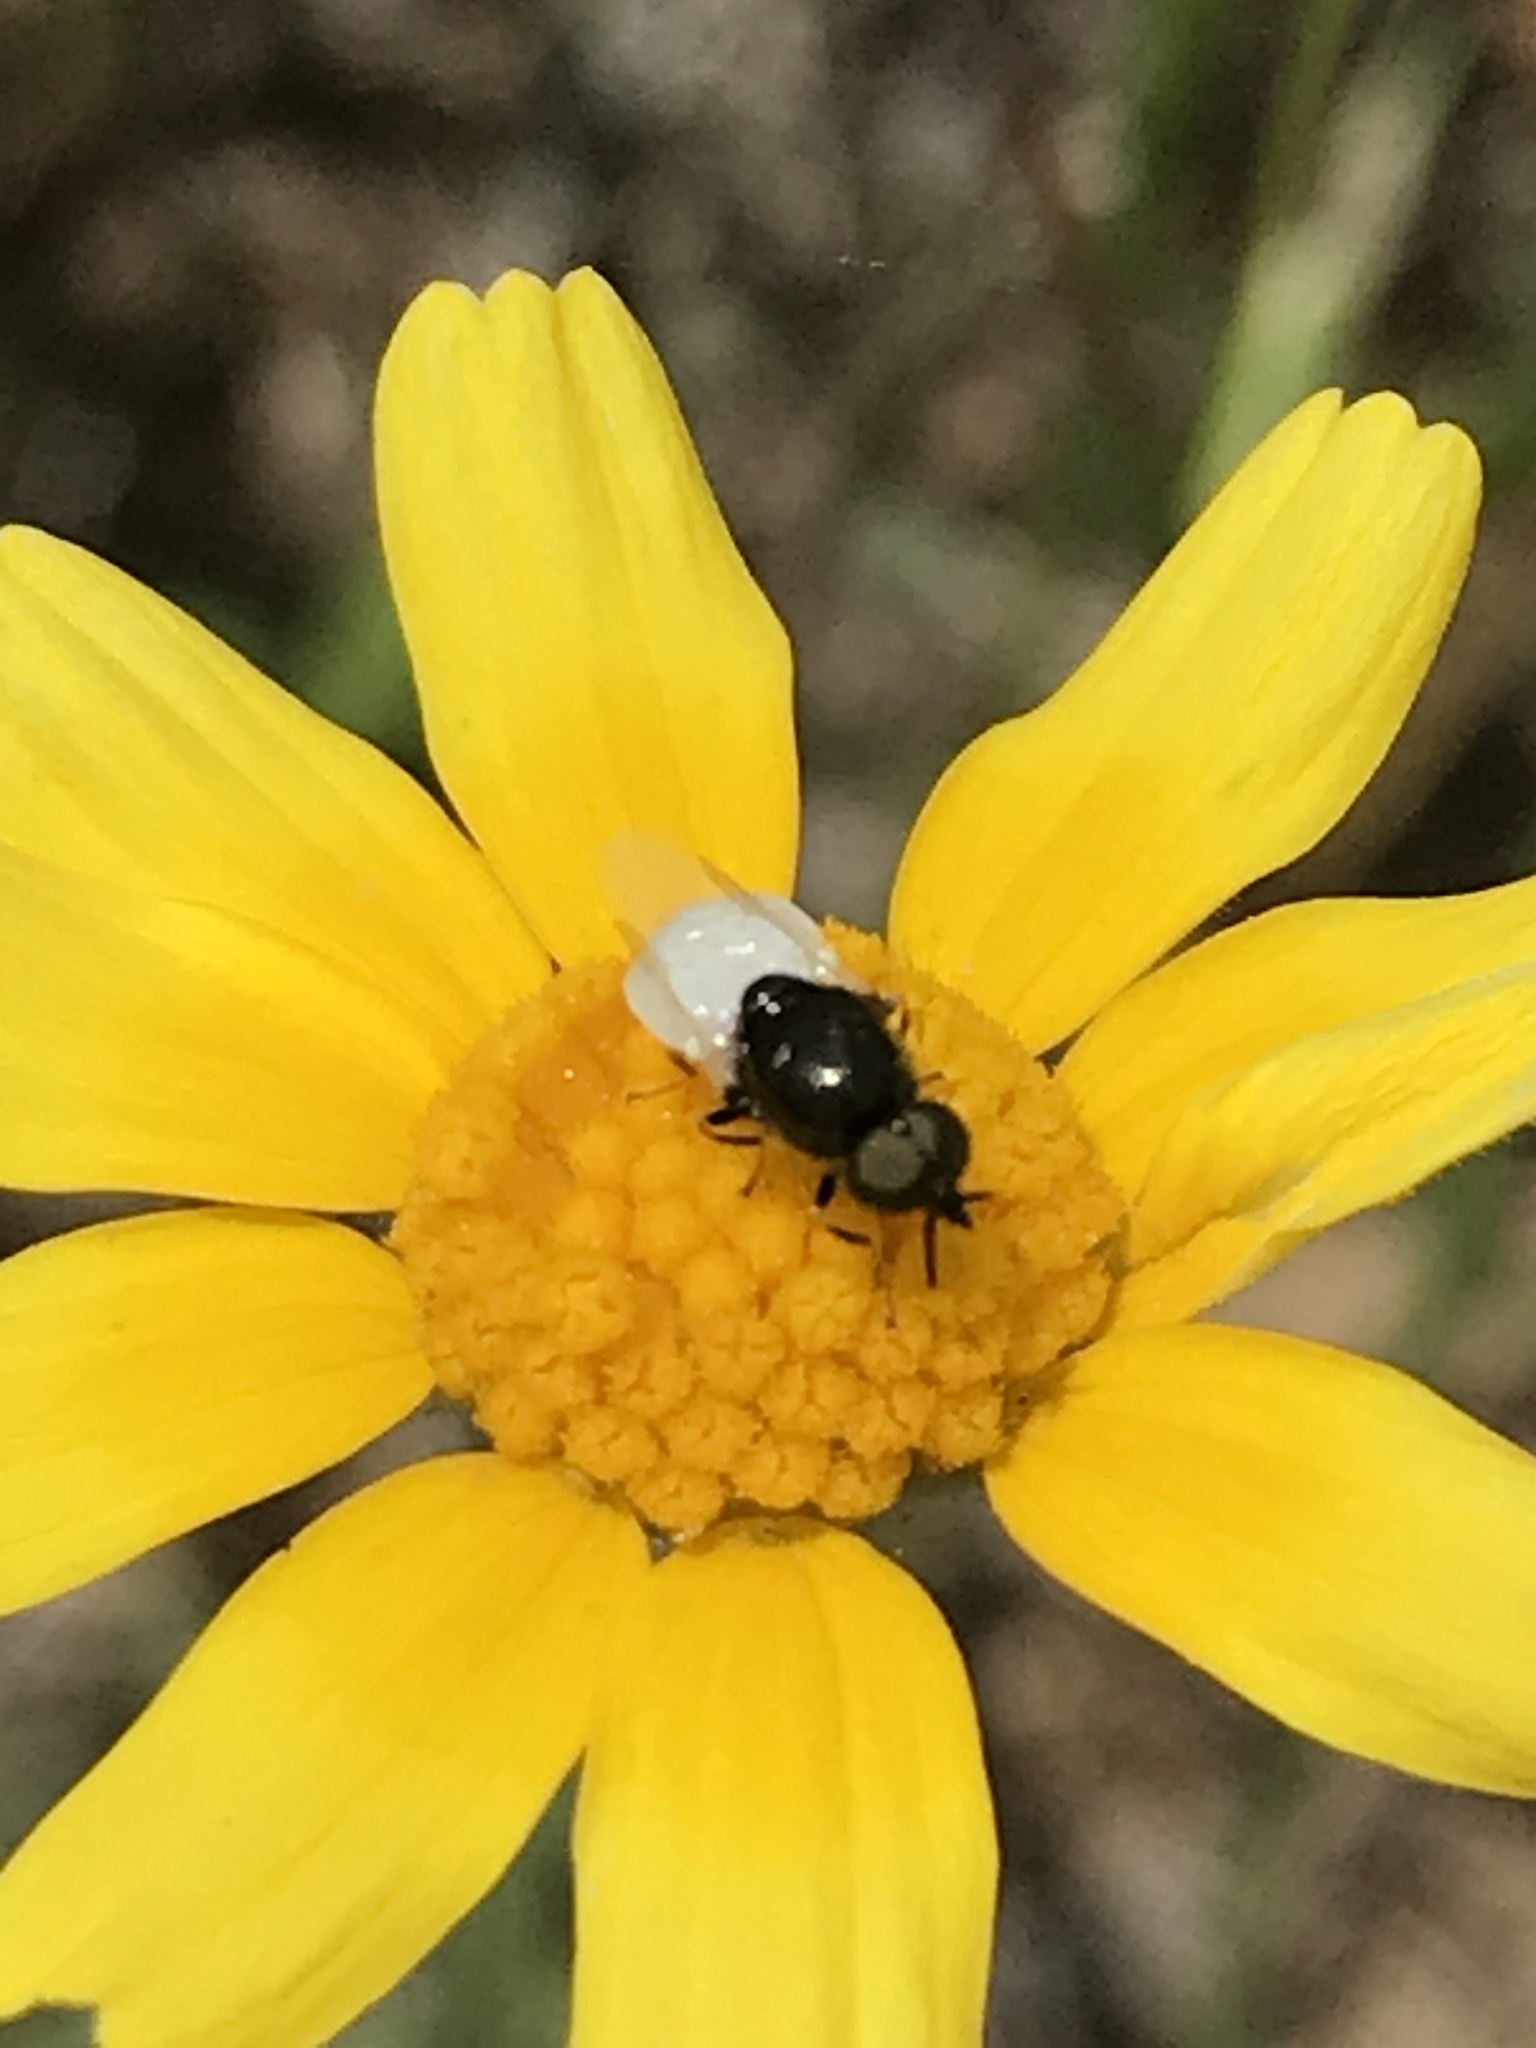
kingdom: Animalia
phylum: Arthropoda
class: Insecta
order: Diptera
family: Stratiomyidae
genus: Nemotelus
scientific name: Nemotelus kansensis
